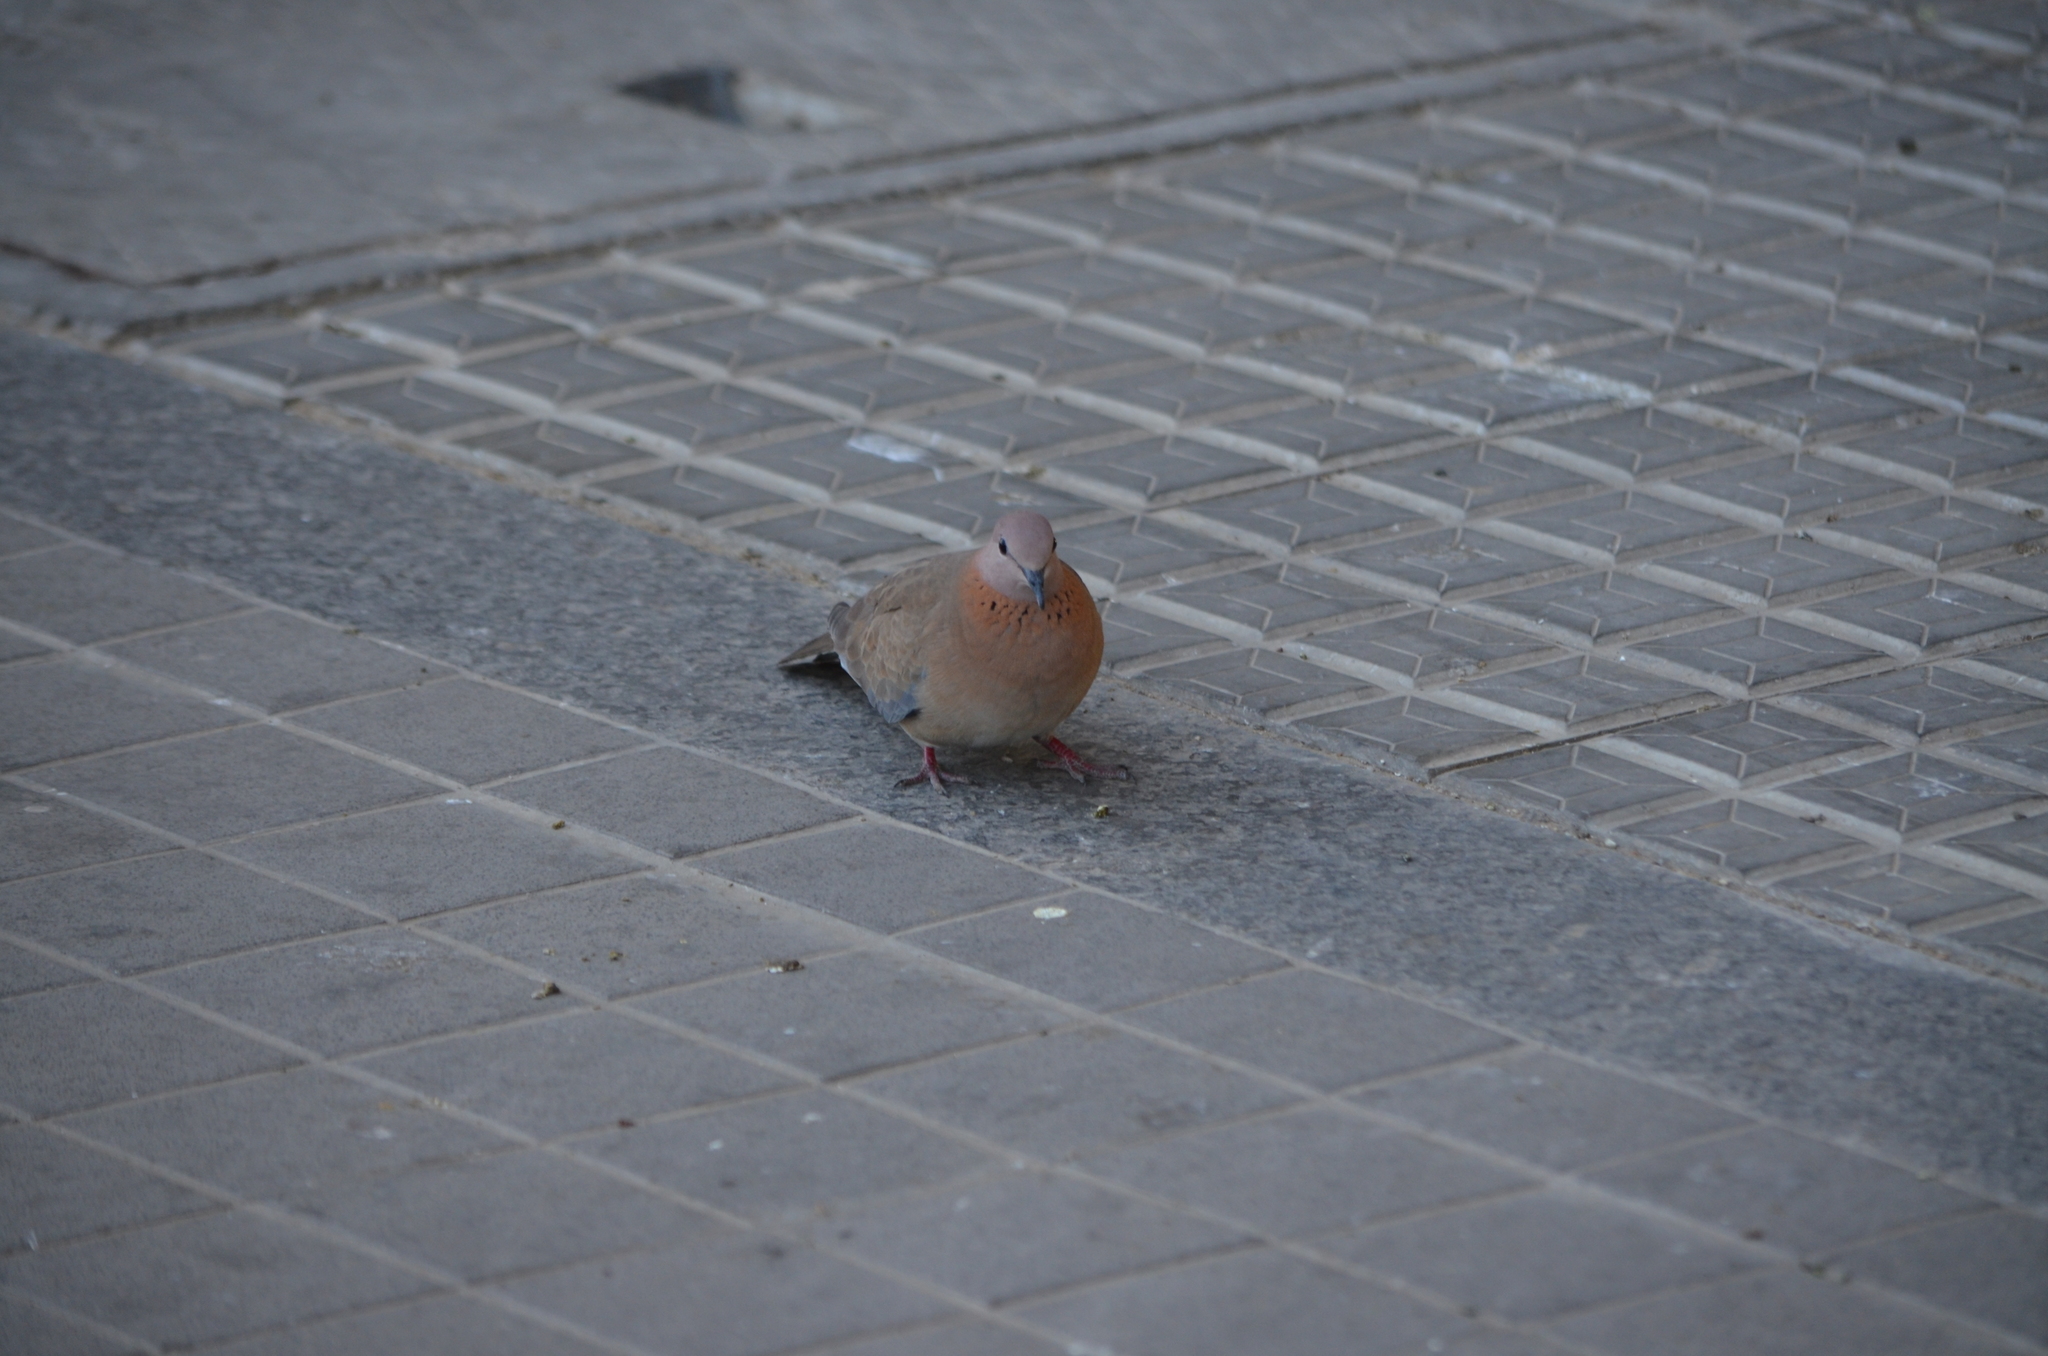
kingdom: Animalia
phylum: Chordata
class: Aves
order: Columbiformes
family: Columbidae
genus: Spilopelia
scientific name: Spilopelia senegalensis
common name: Laughing dove
